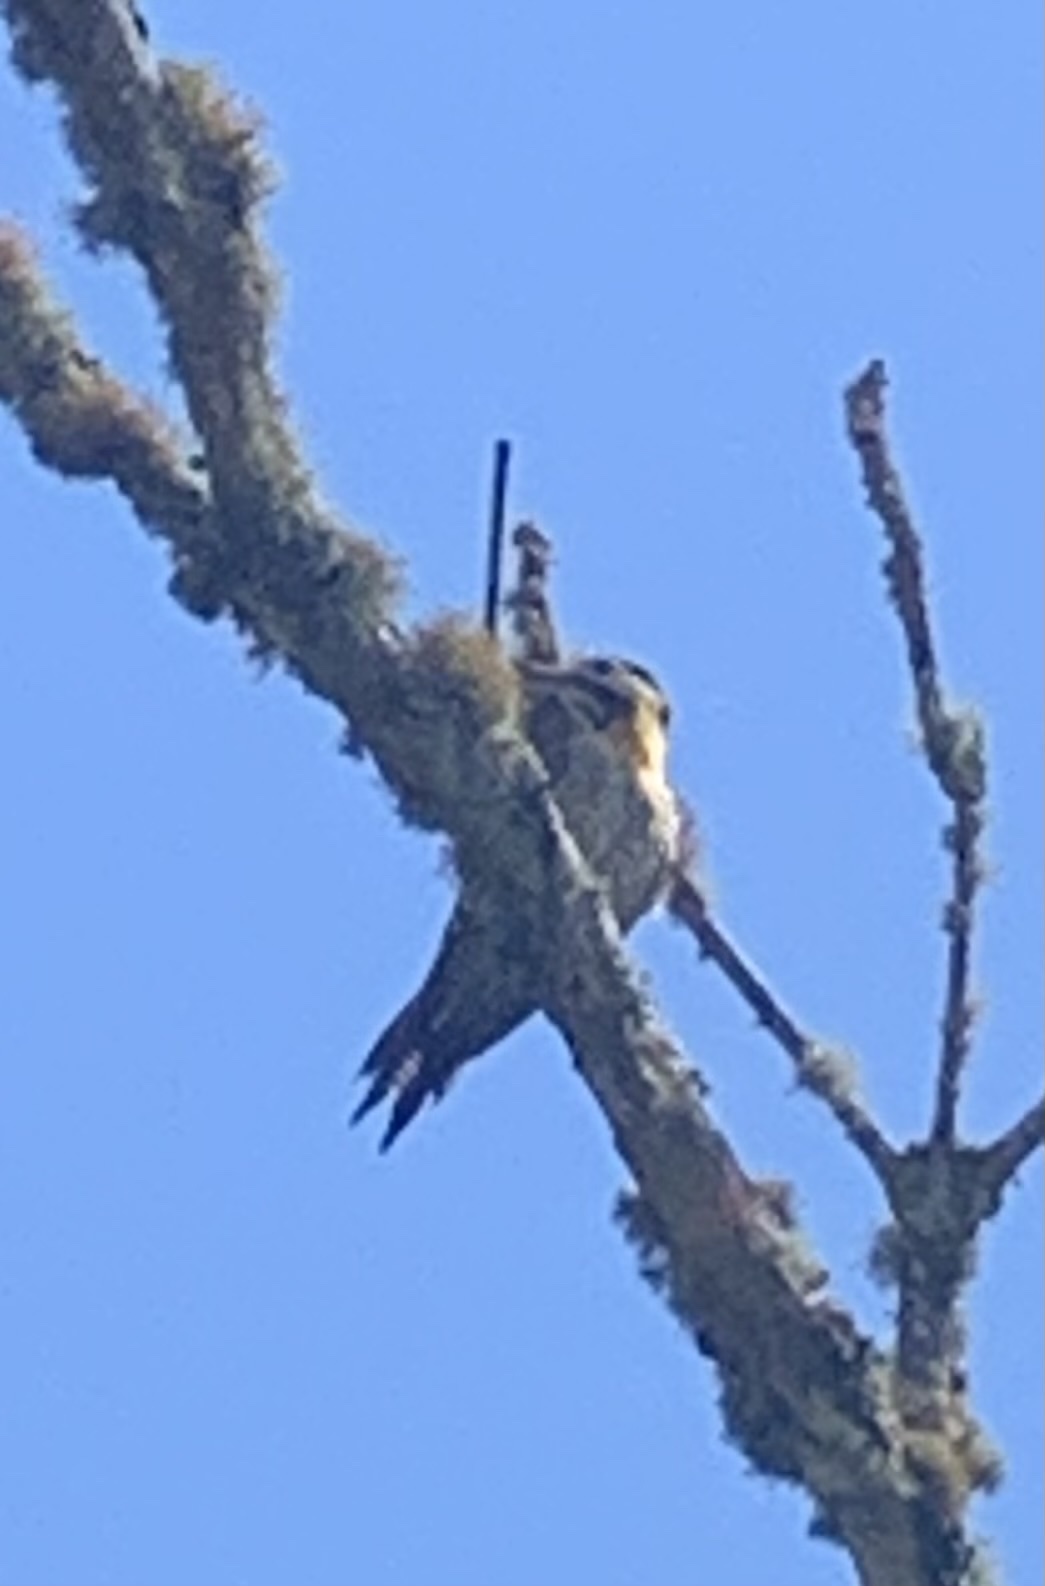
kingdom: Animalia
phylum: Chordata
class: Aves
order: Piciformes
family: Picidae
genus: Colaptes
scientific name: Colaptes campestris
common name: Campo flicker
